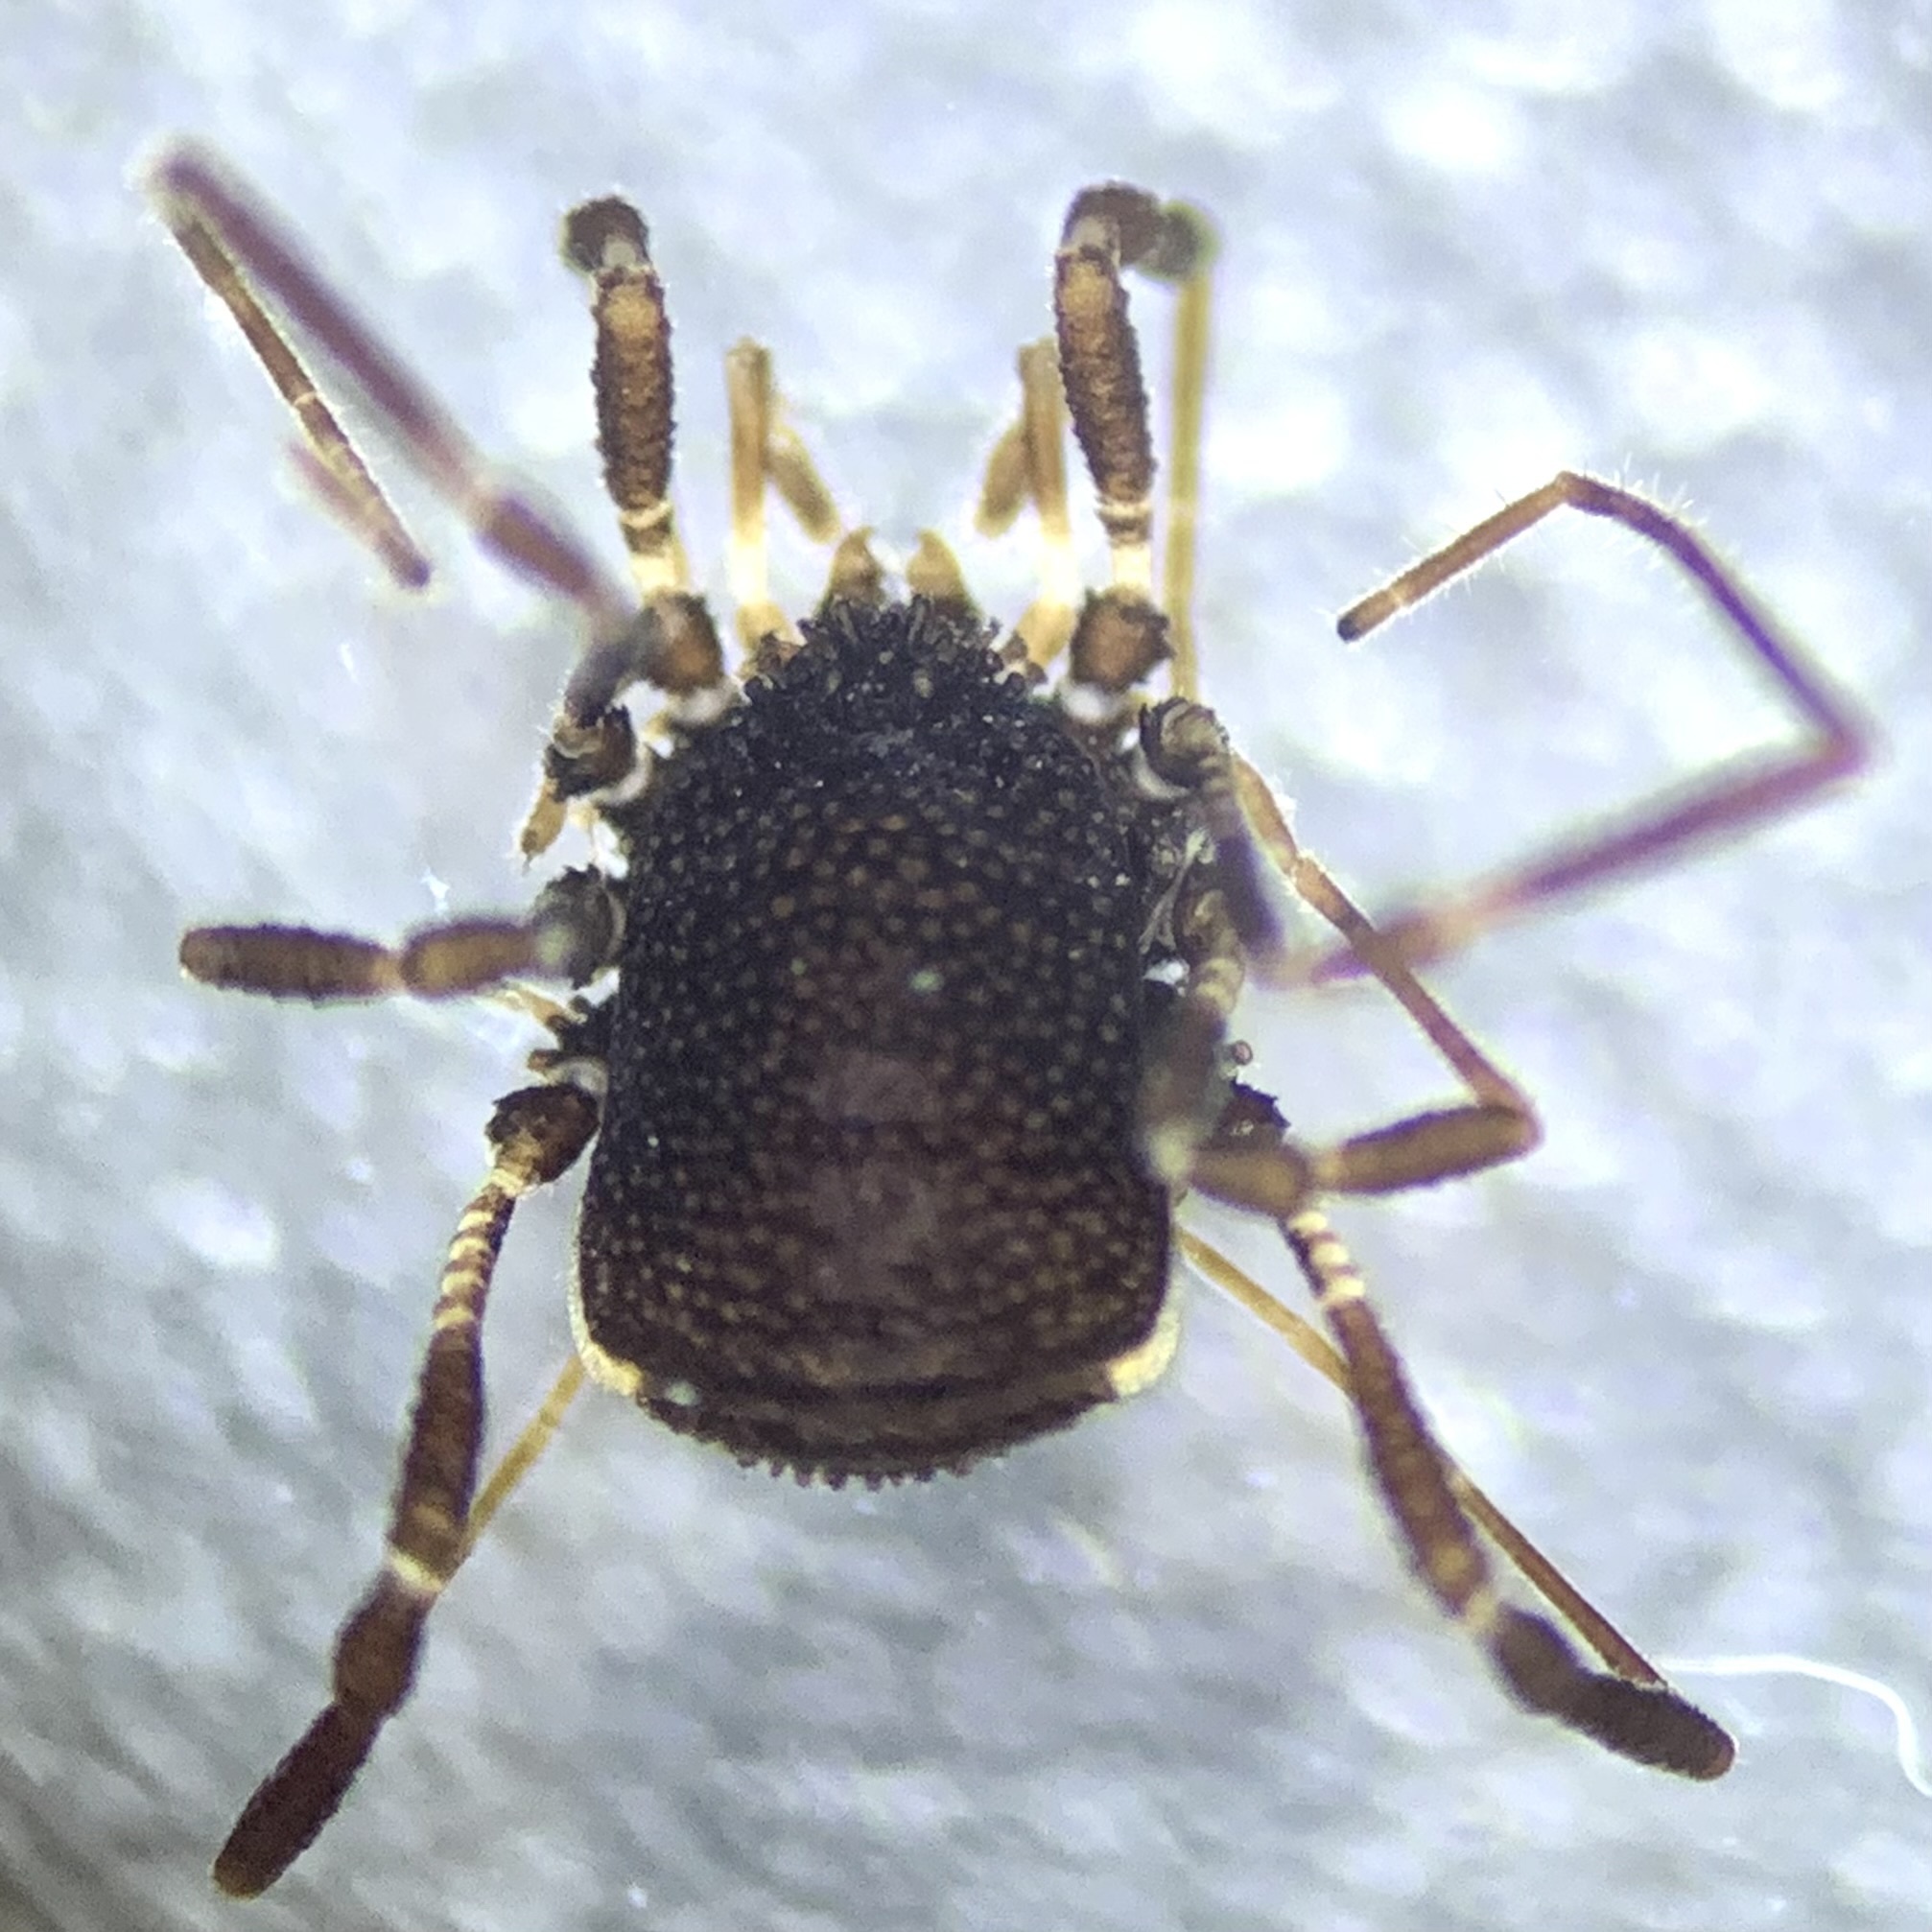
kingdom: Animalia
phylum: Arthropoda
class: Arachnida
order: Opiliones
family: Nemastomatidae
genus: Centetostoma
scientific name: Centetostoma juberthiei
